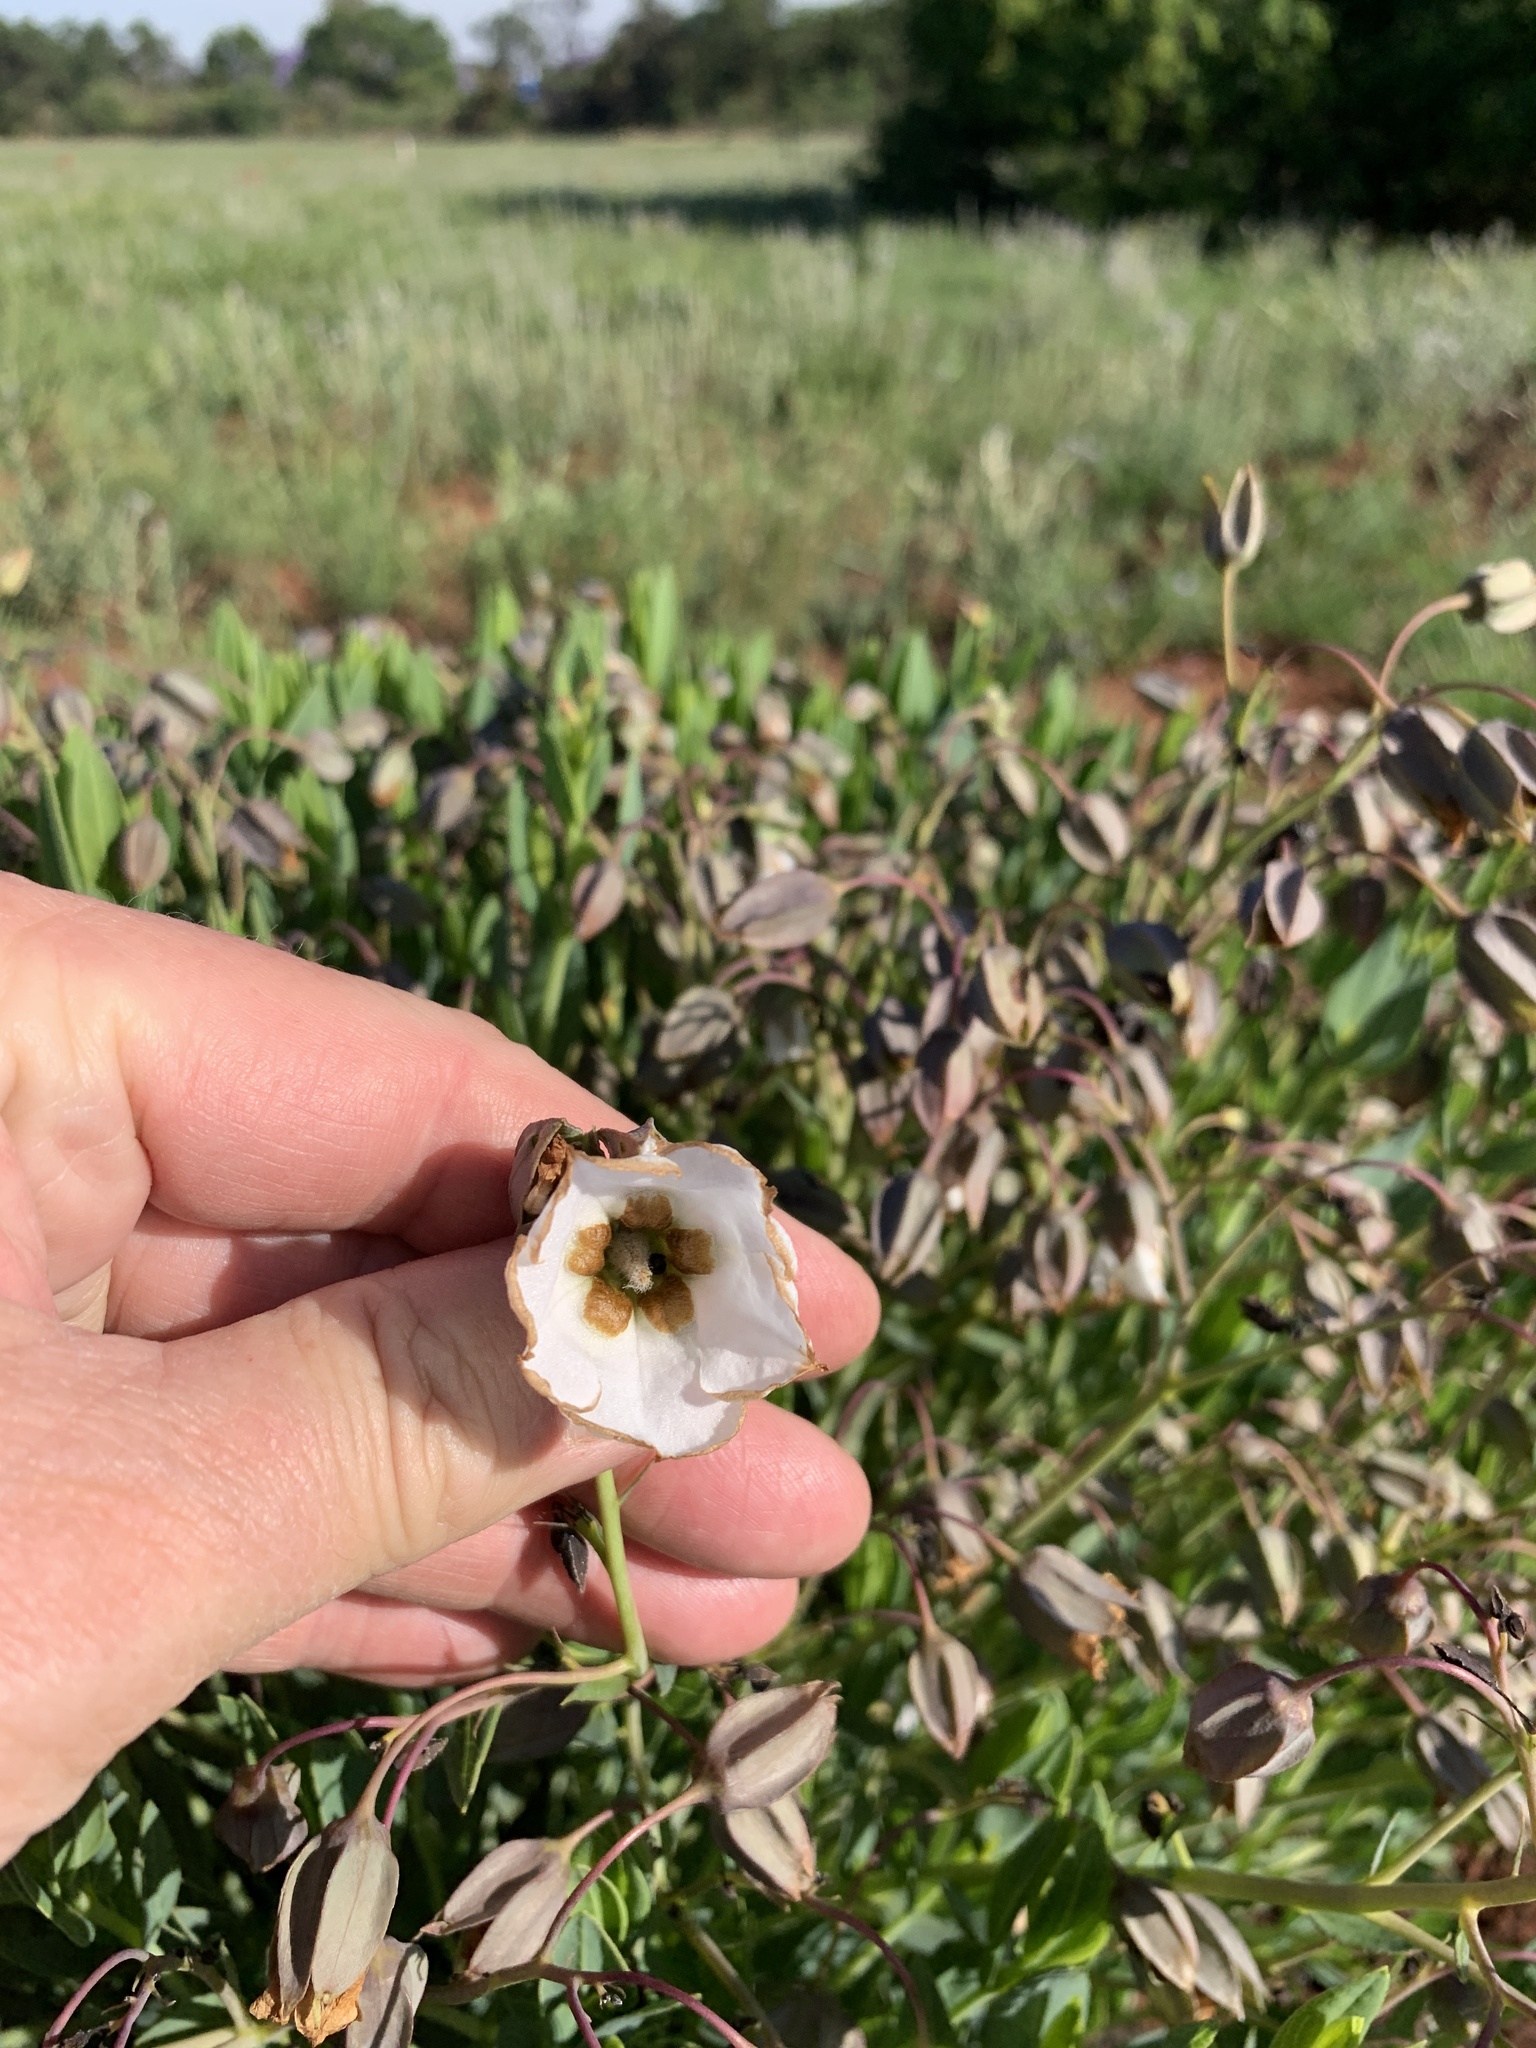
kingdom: Plantae
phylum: Tracheophyta
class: Magnoliopsida
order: Boraginales
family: Boraginaceae
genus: Trichodesma
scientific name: Trichodesma physaloides
